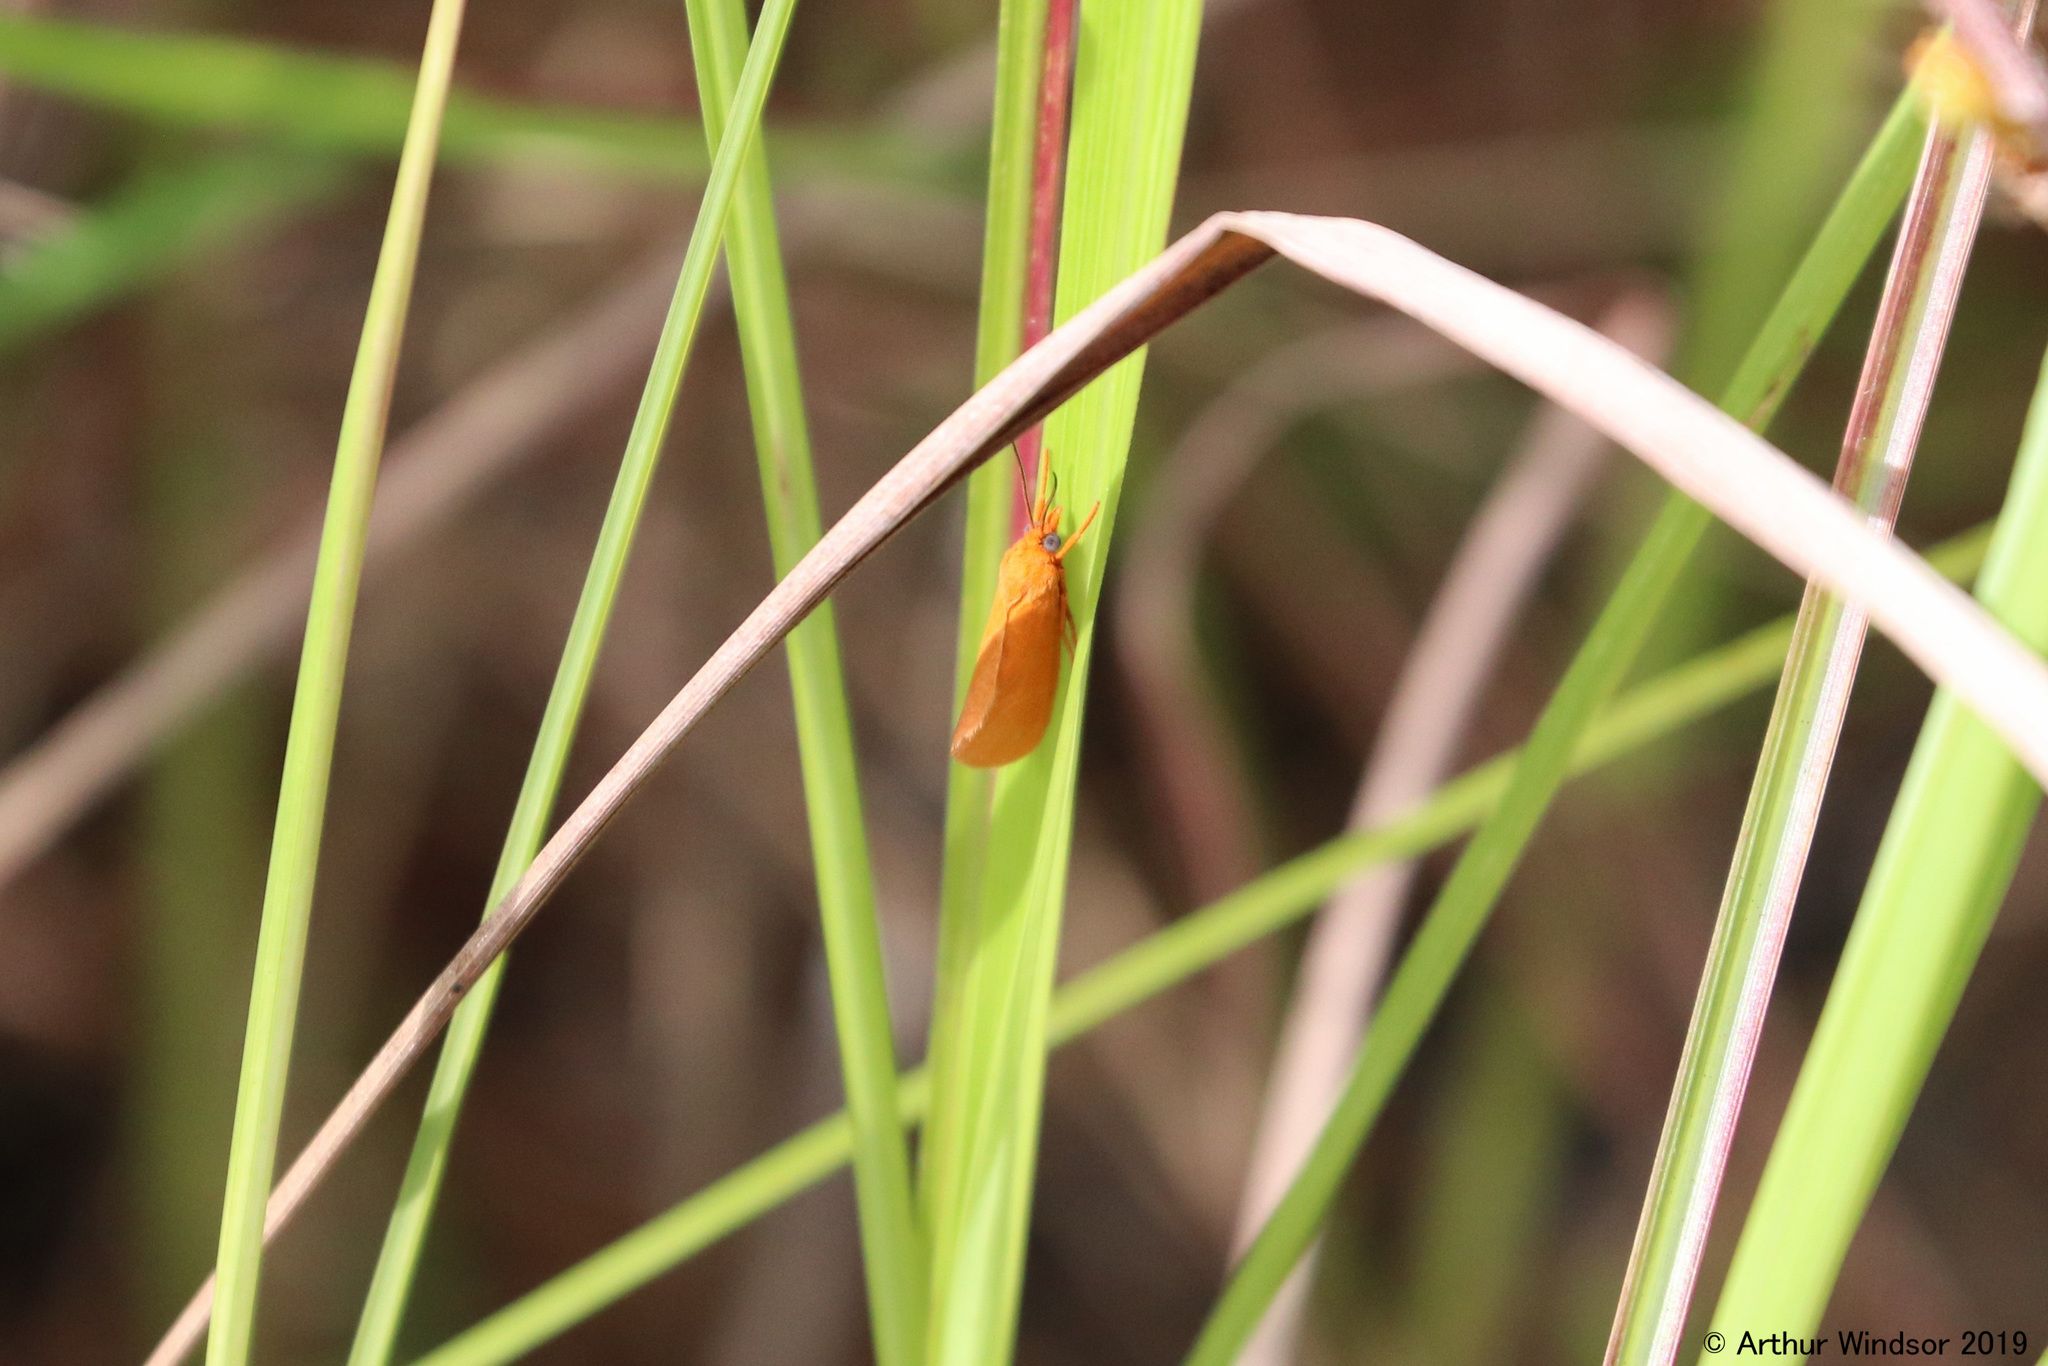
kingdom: Animalia
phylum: Arthropoda
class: Insecta
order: Lepidoptera
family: Erebidae
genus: Virbia
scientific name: Virbia rubicundaria
